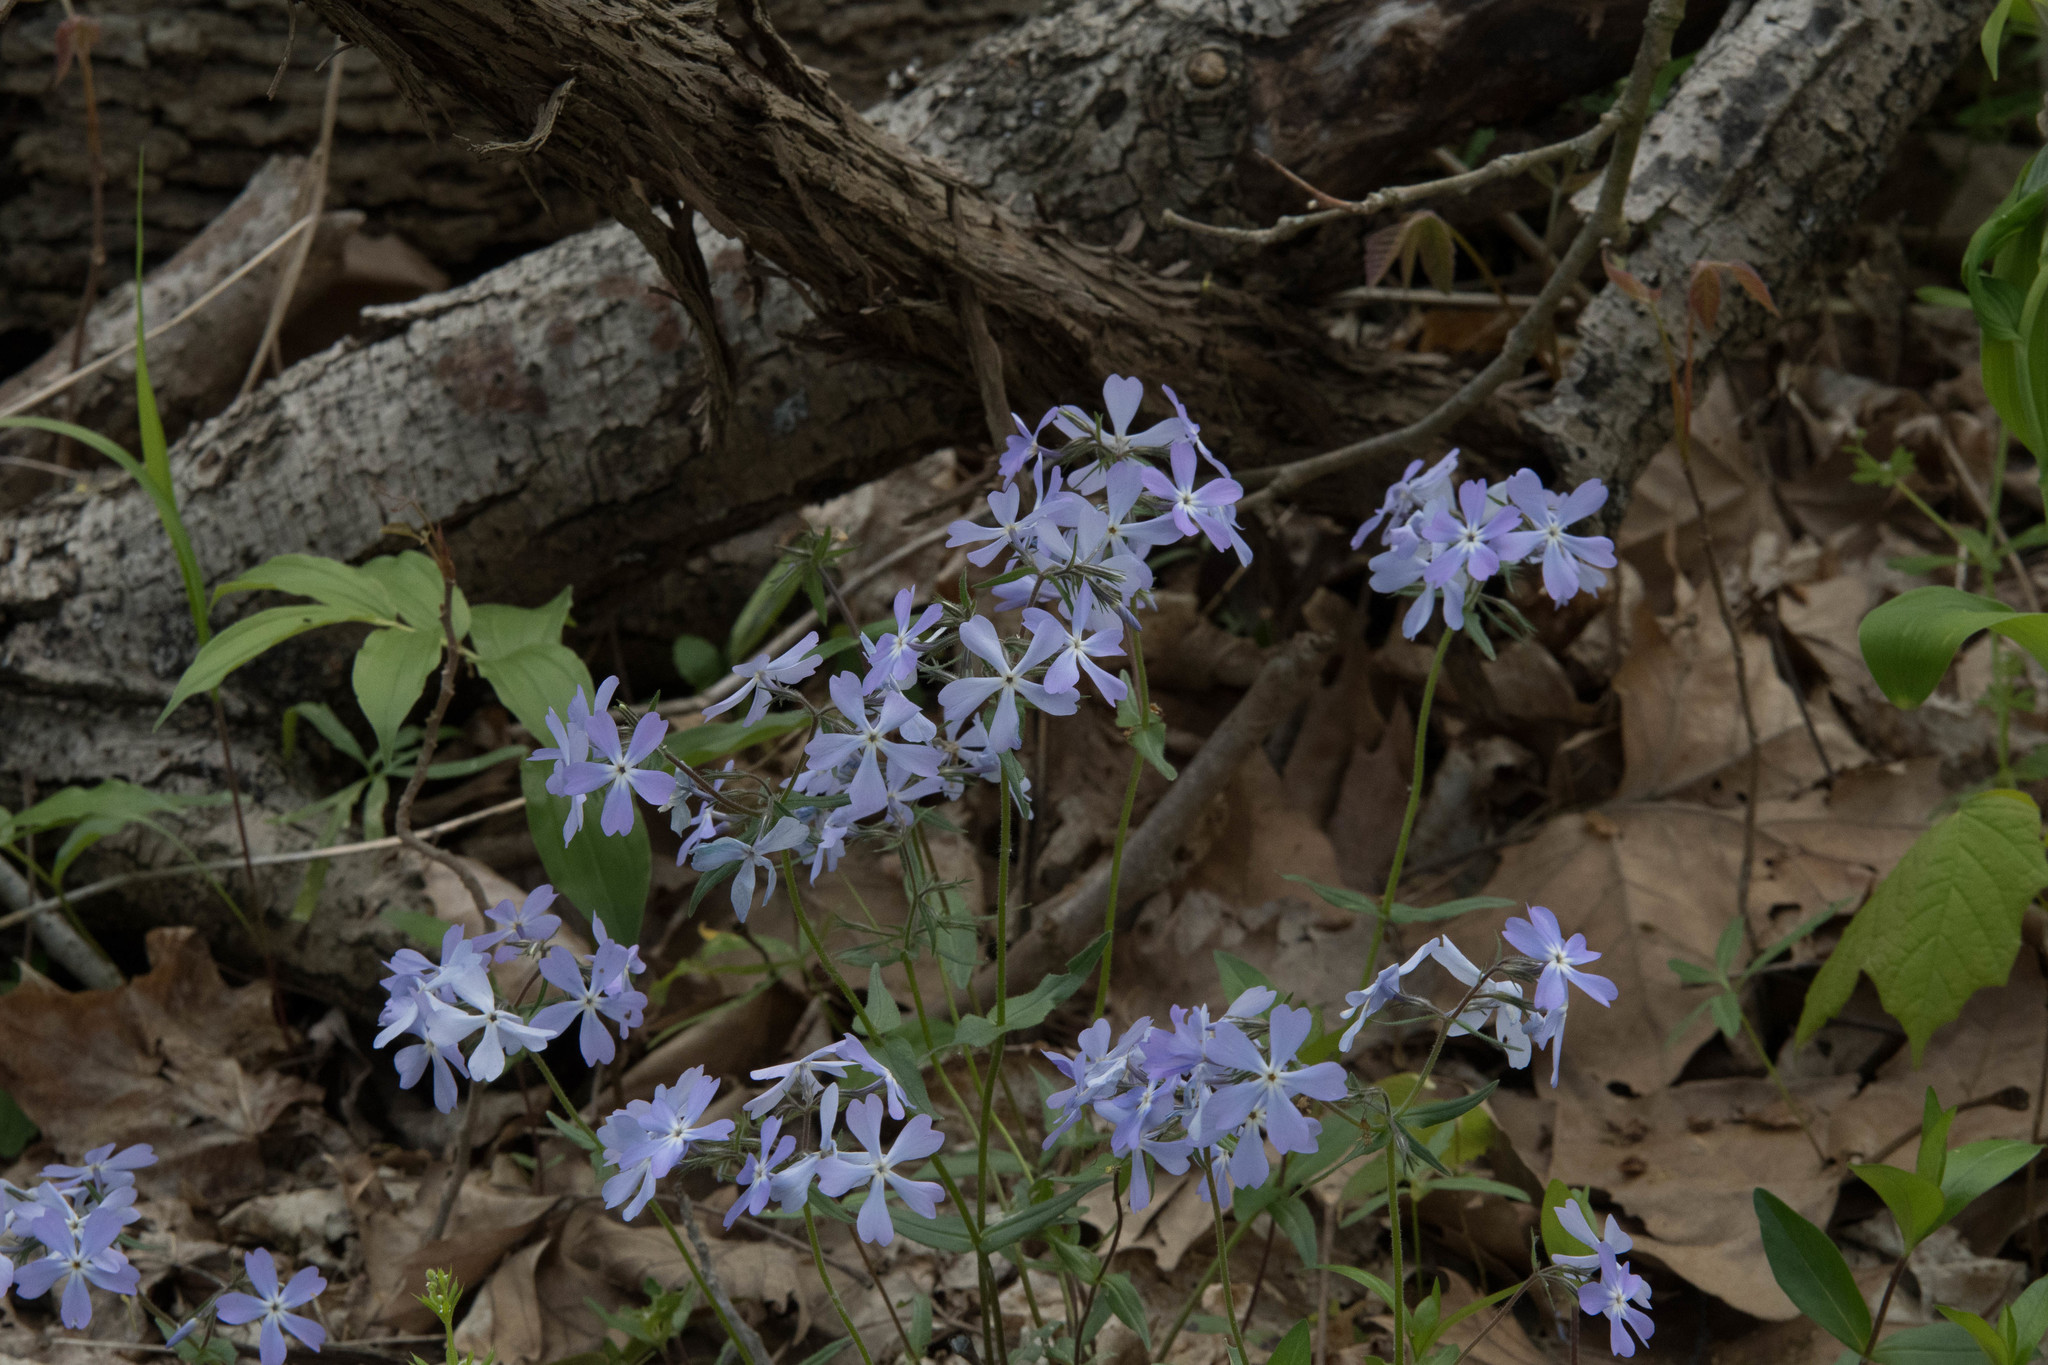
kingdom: Plantae
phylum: Tracheophyta
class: Magnoliopsida
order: Ericales
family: Polemoniaceae
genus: Phlox
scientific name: Phlox divaricata
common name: Blue phlox
